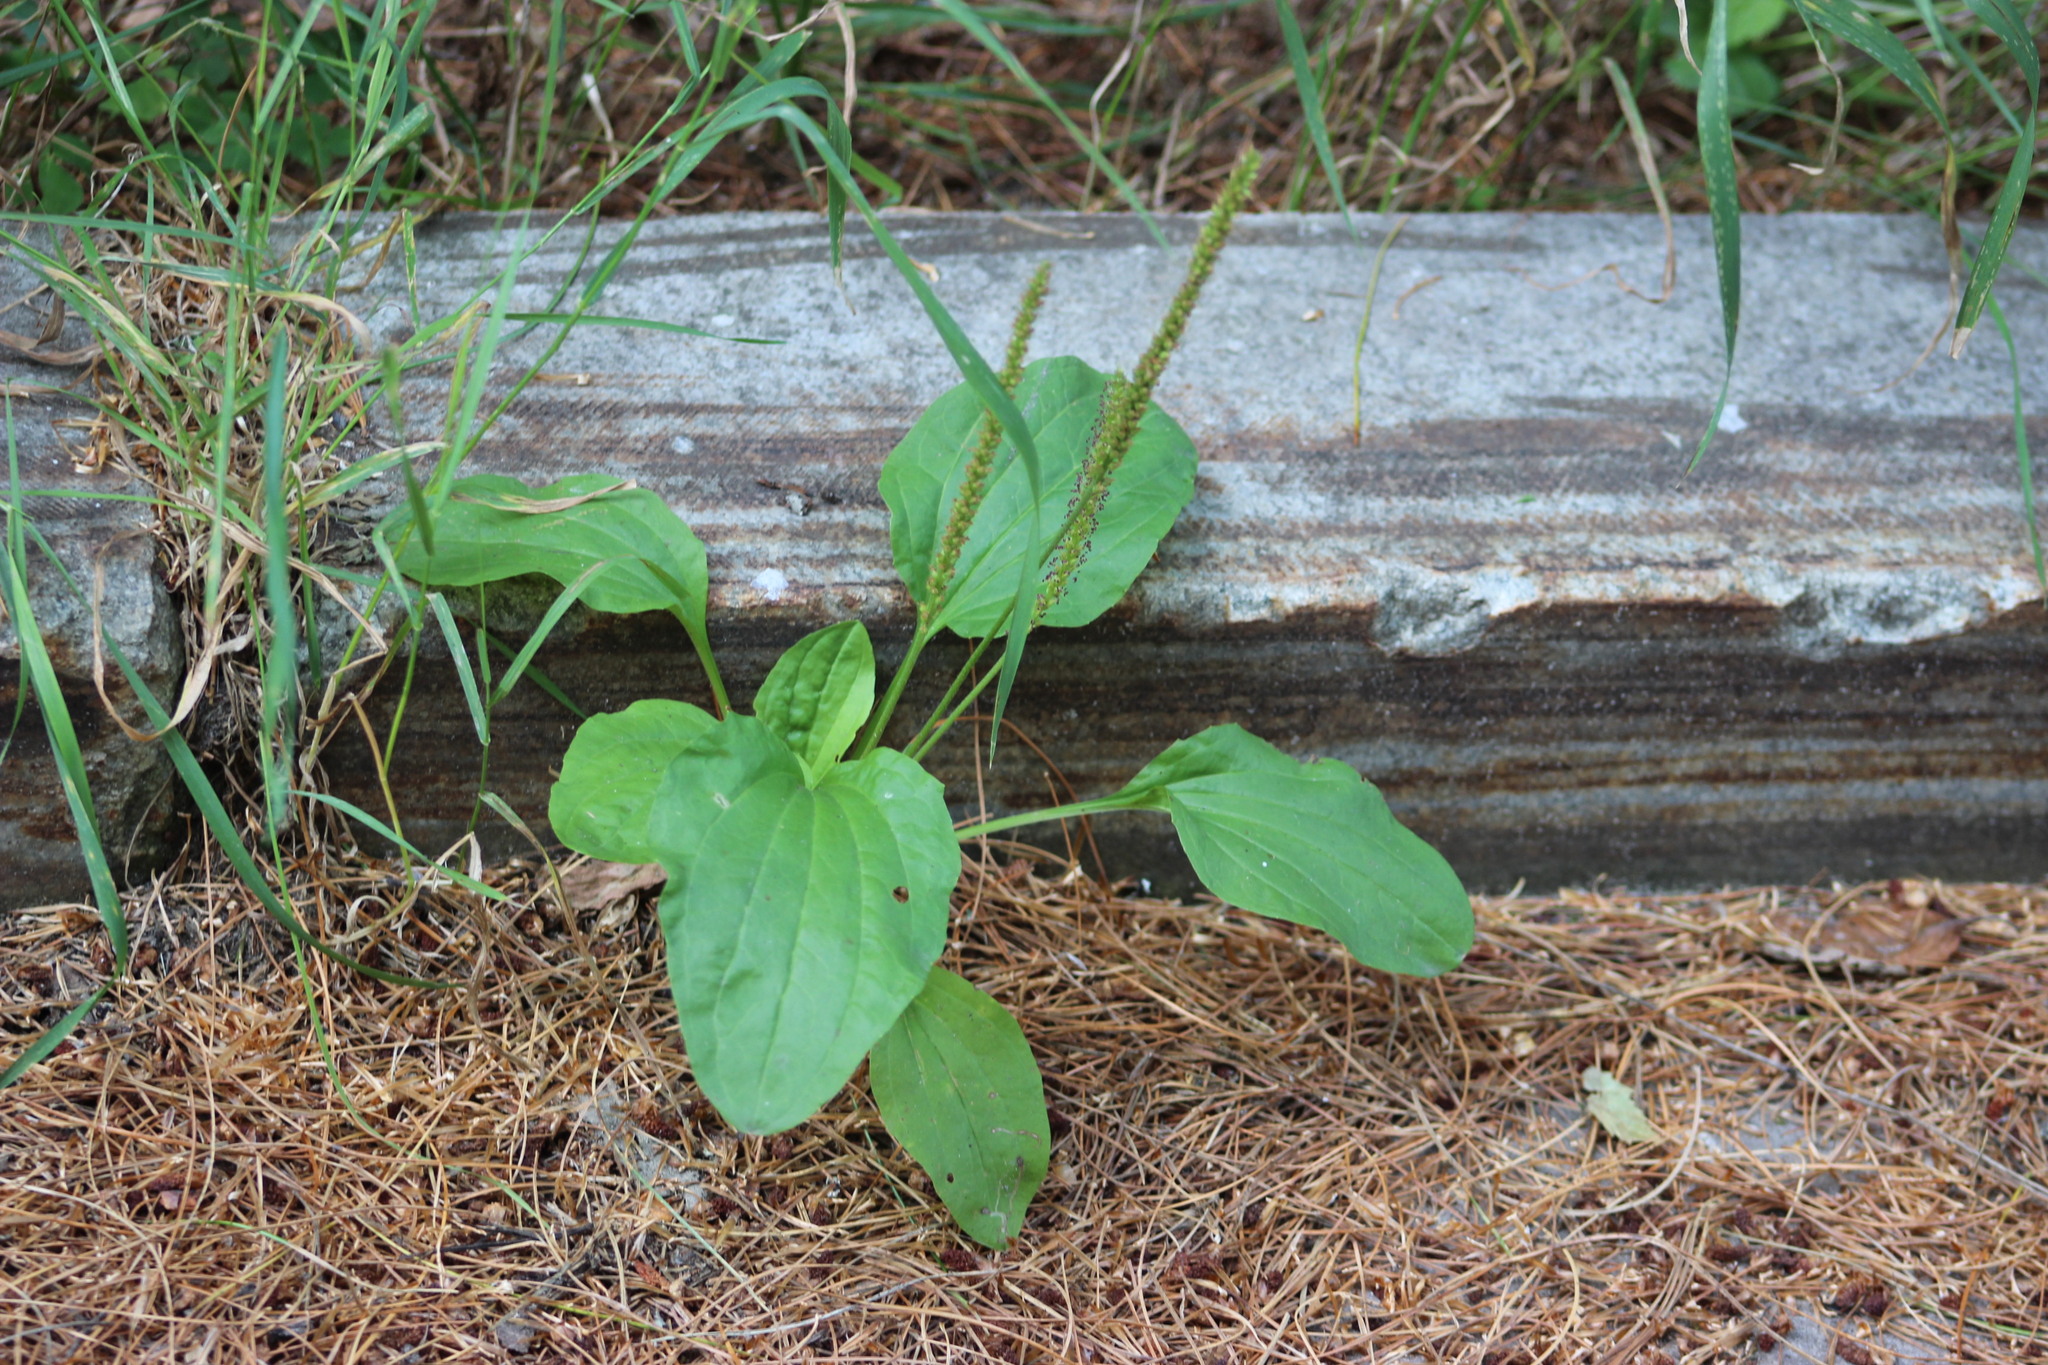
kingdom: Plantae
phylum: Tracheophyta
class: Magnoliopsida
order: Lamiales
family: Plantaginaceae
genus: Plantago
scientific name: Plantago major
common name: Common plantain
